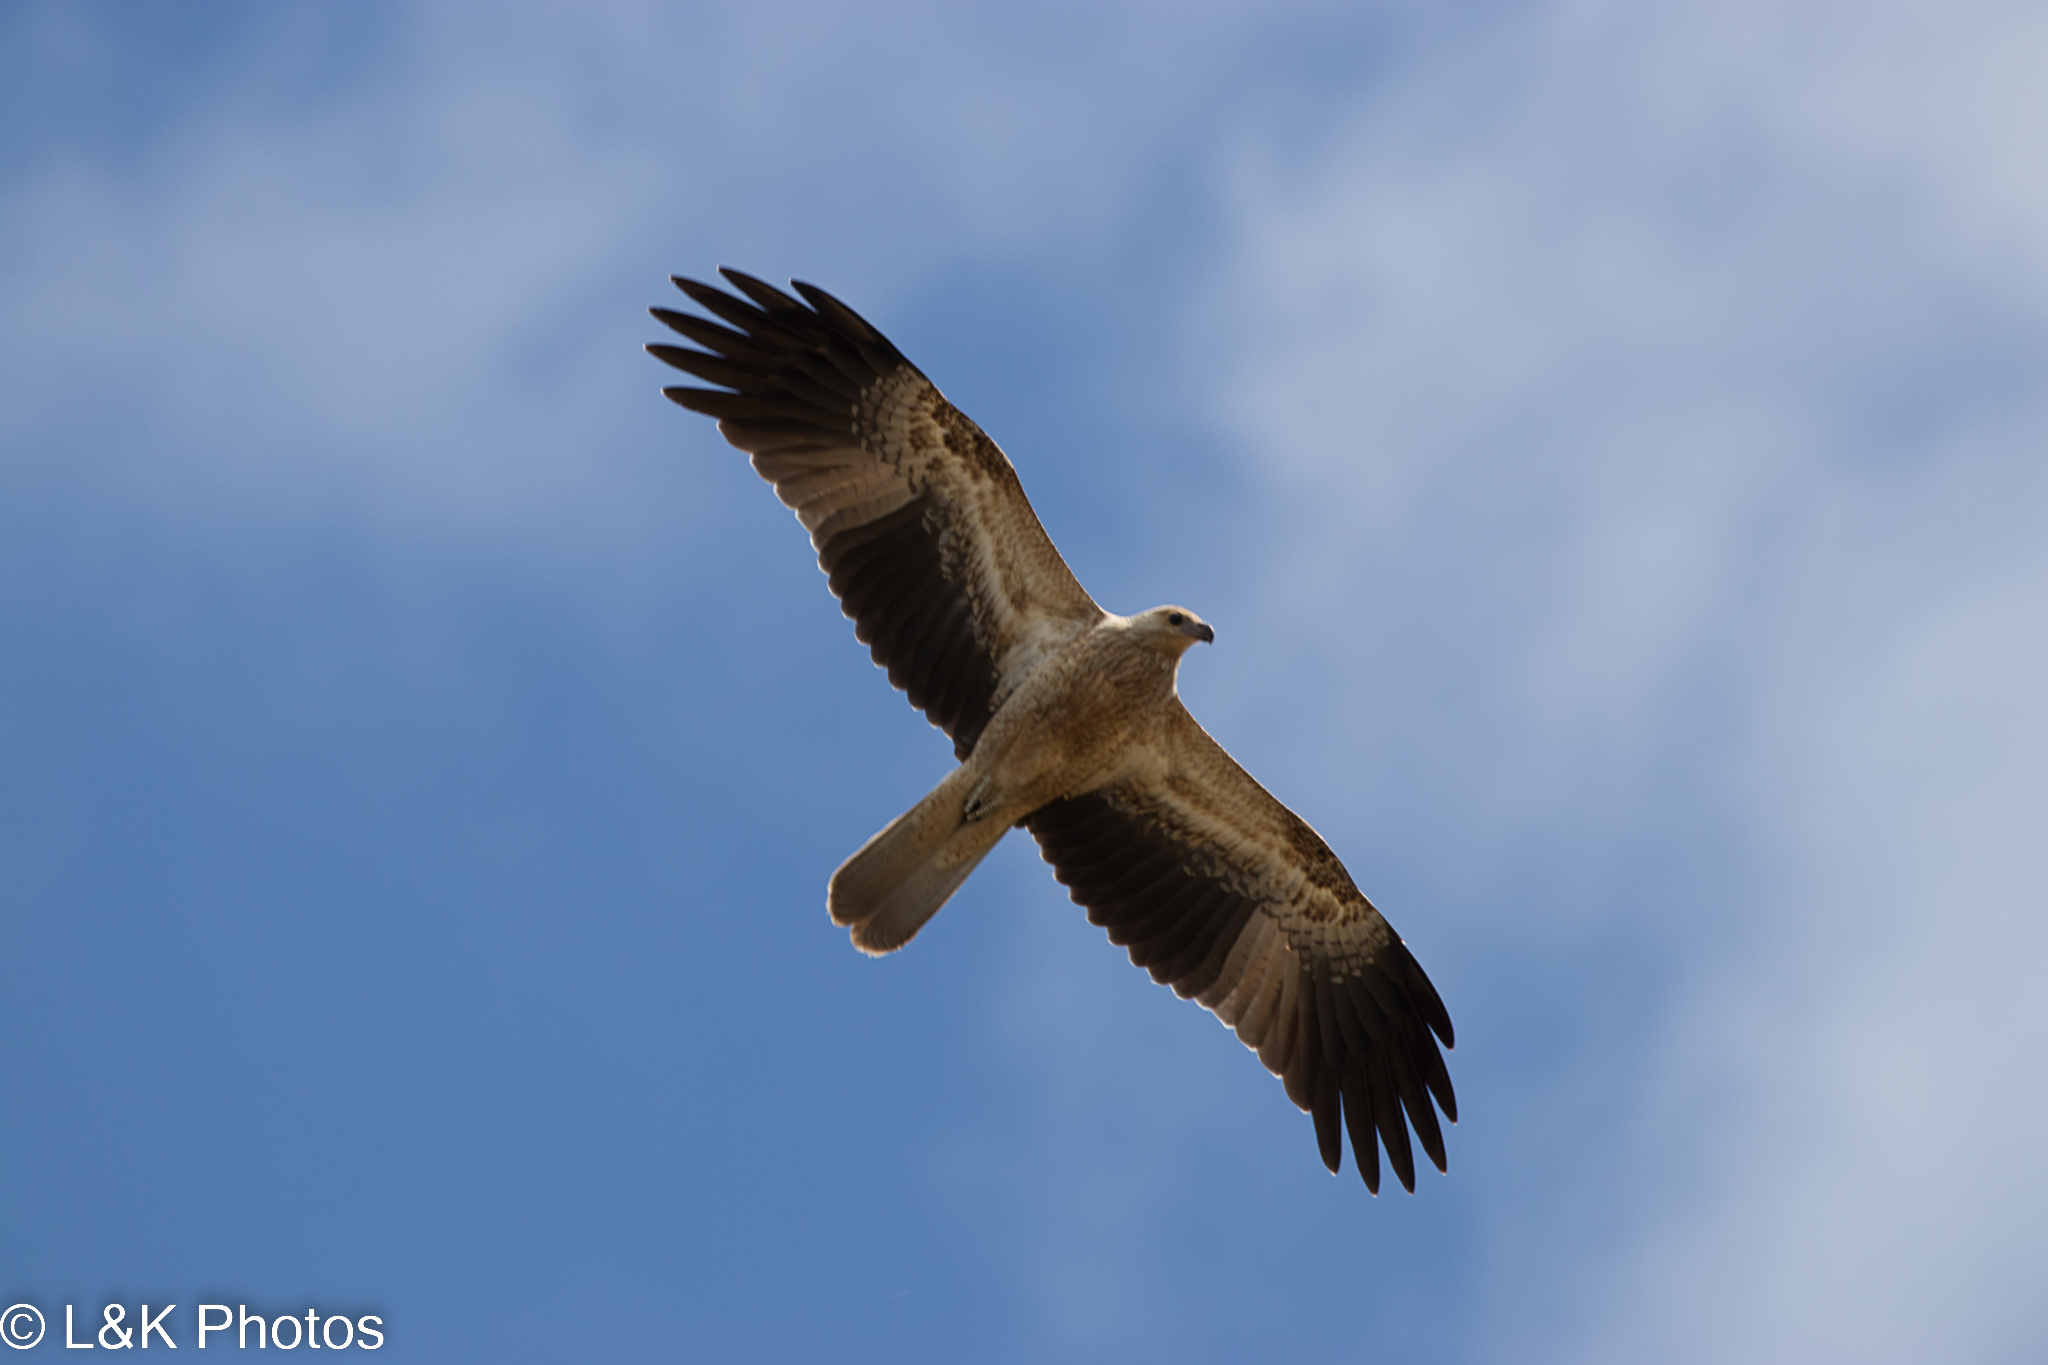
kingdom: Animalia
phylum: Chordata
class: Aves
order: Accipitriformes
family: Accipitridae
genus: Haliastur
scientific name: Haliastur sphenurus
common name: Whistling kite
